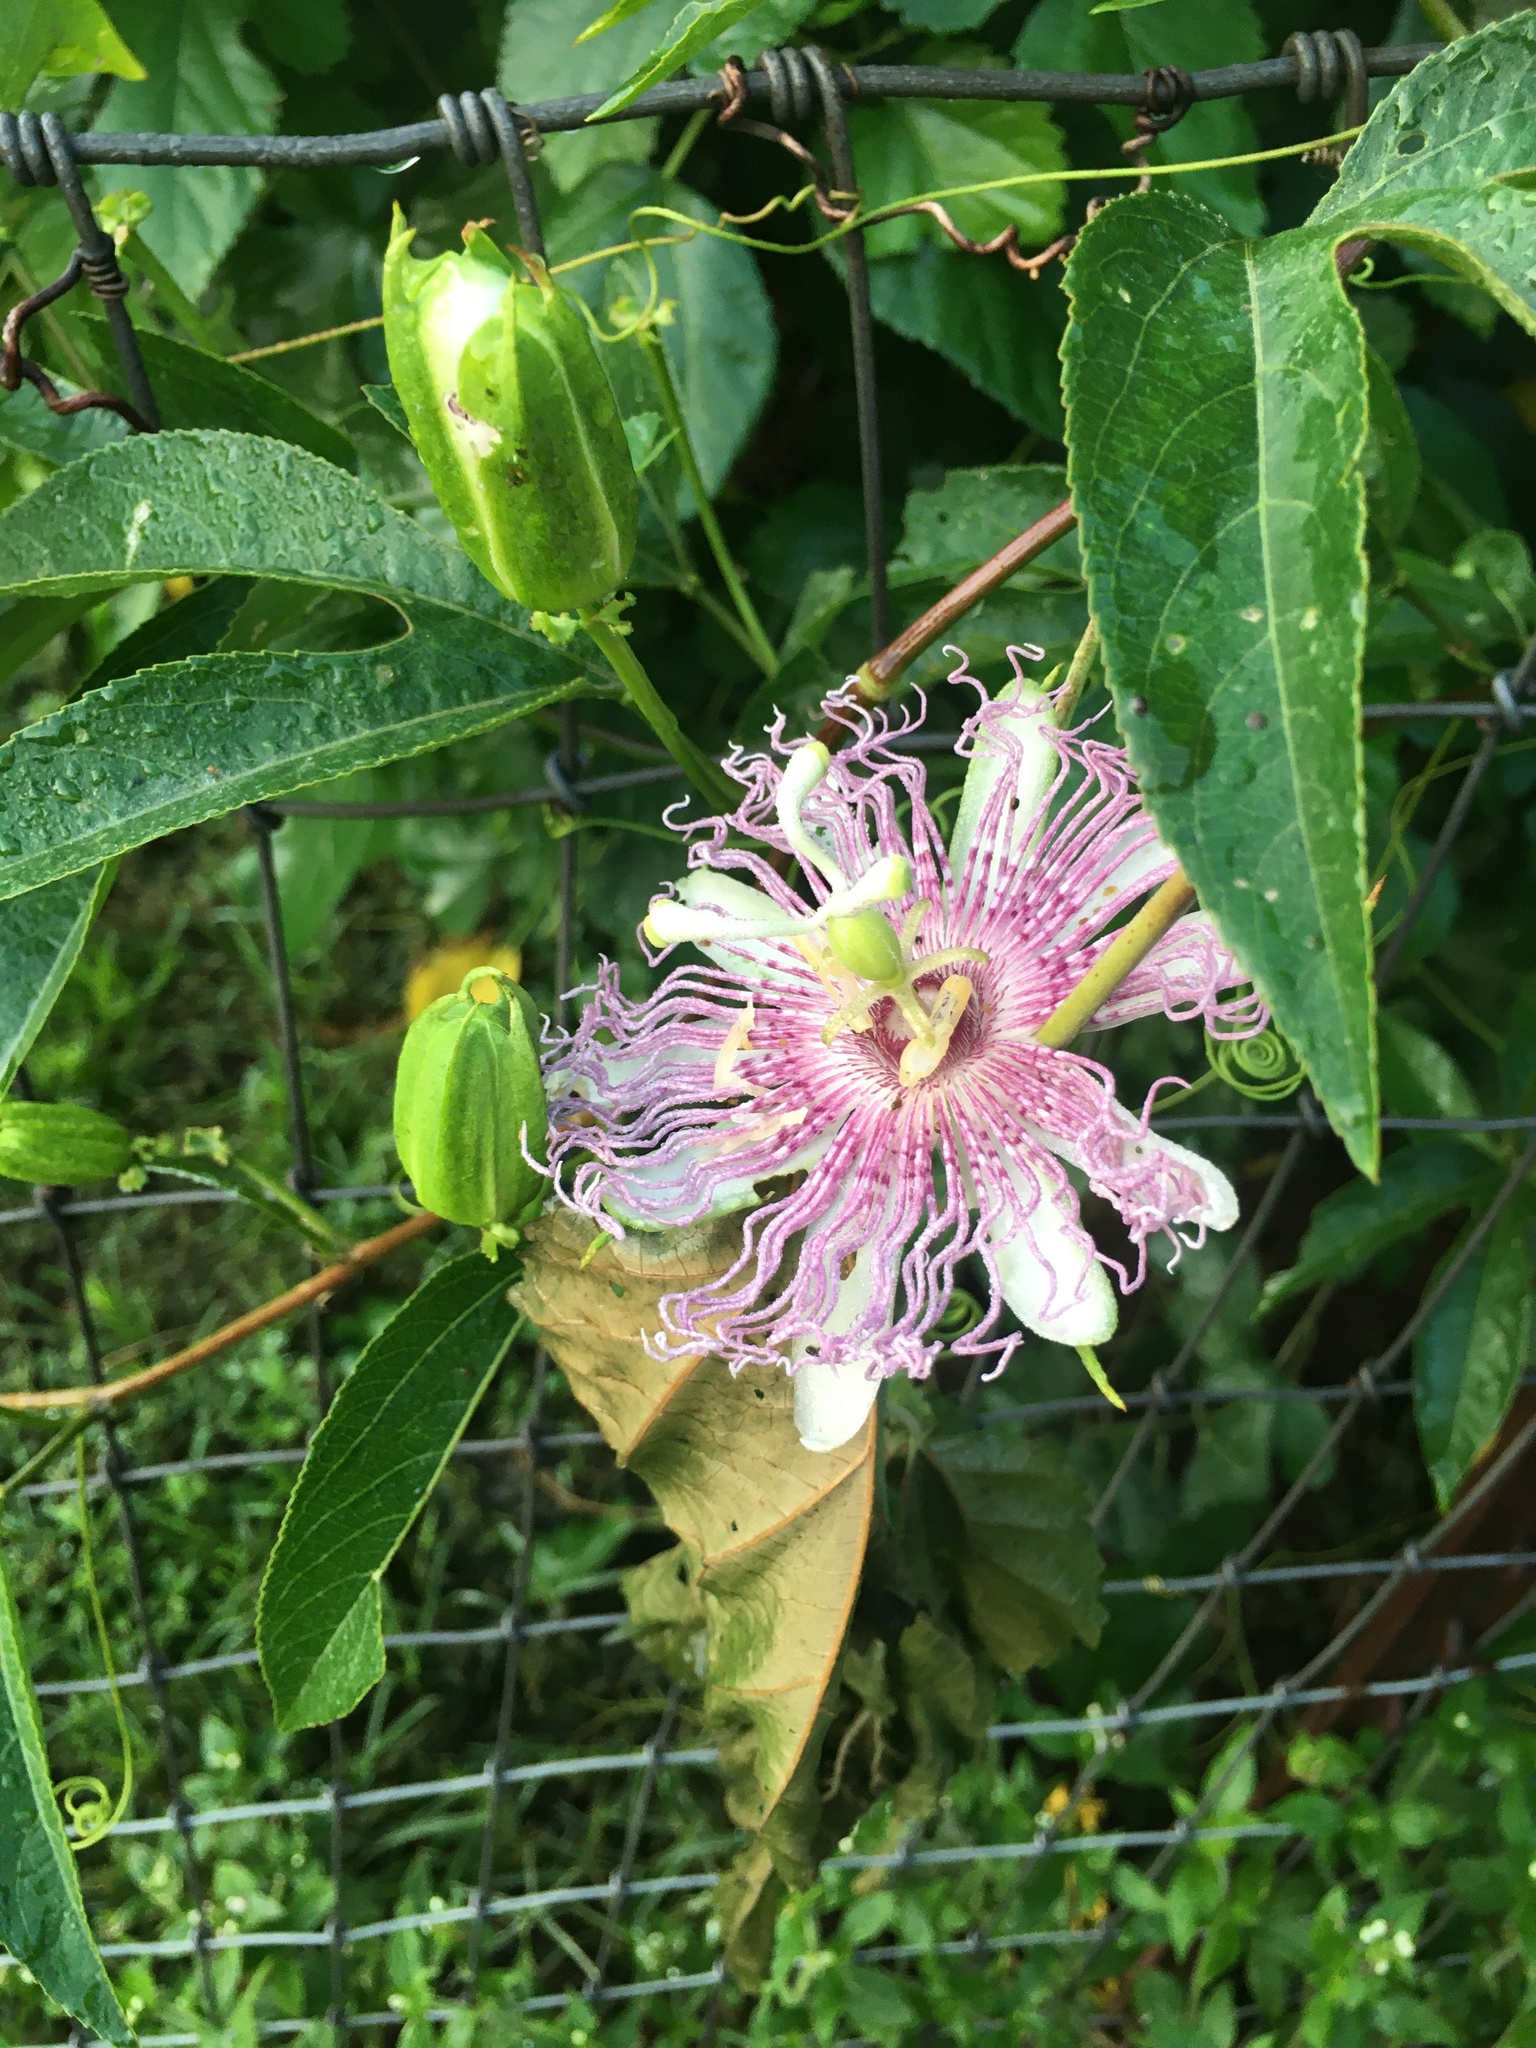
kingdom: Plantae
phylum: Tracheophyta
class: Magnoliopsida
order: Malpighiales
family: Passifloraceae
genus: Passiflora
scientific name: Passiflora incarnata
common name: Apricot-vine
